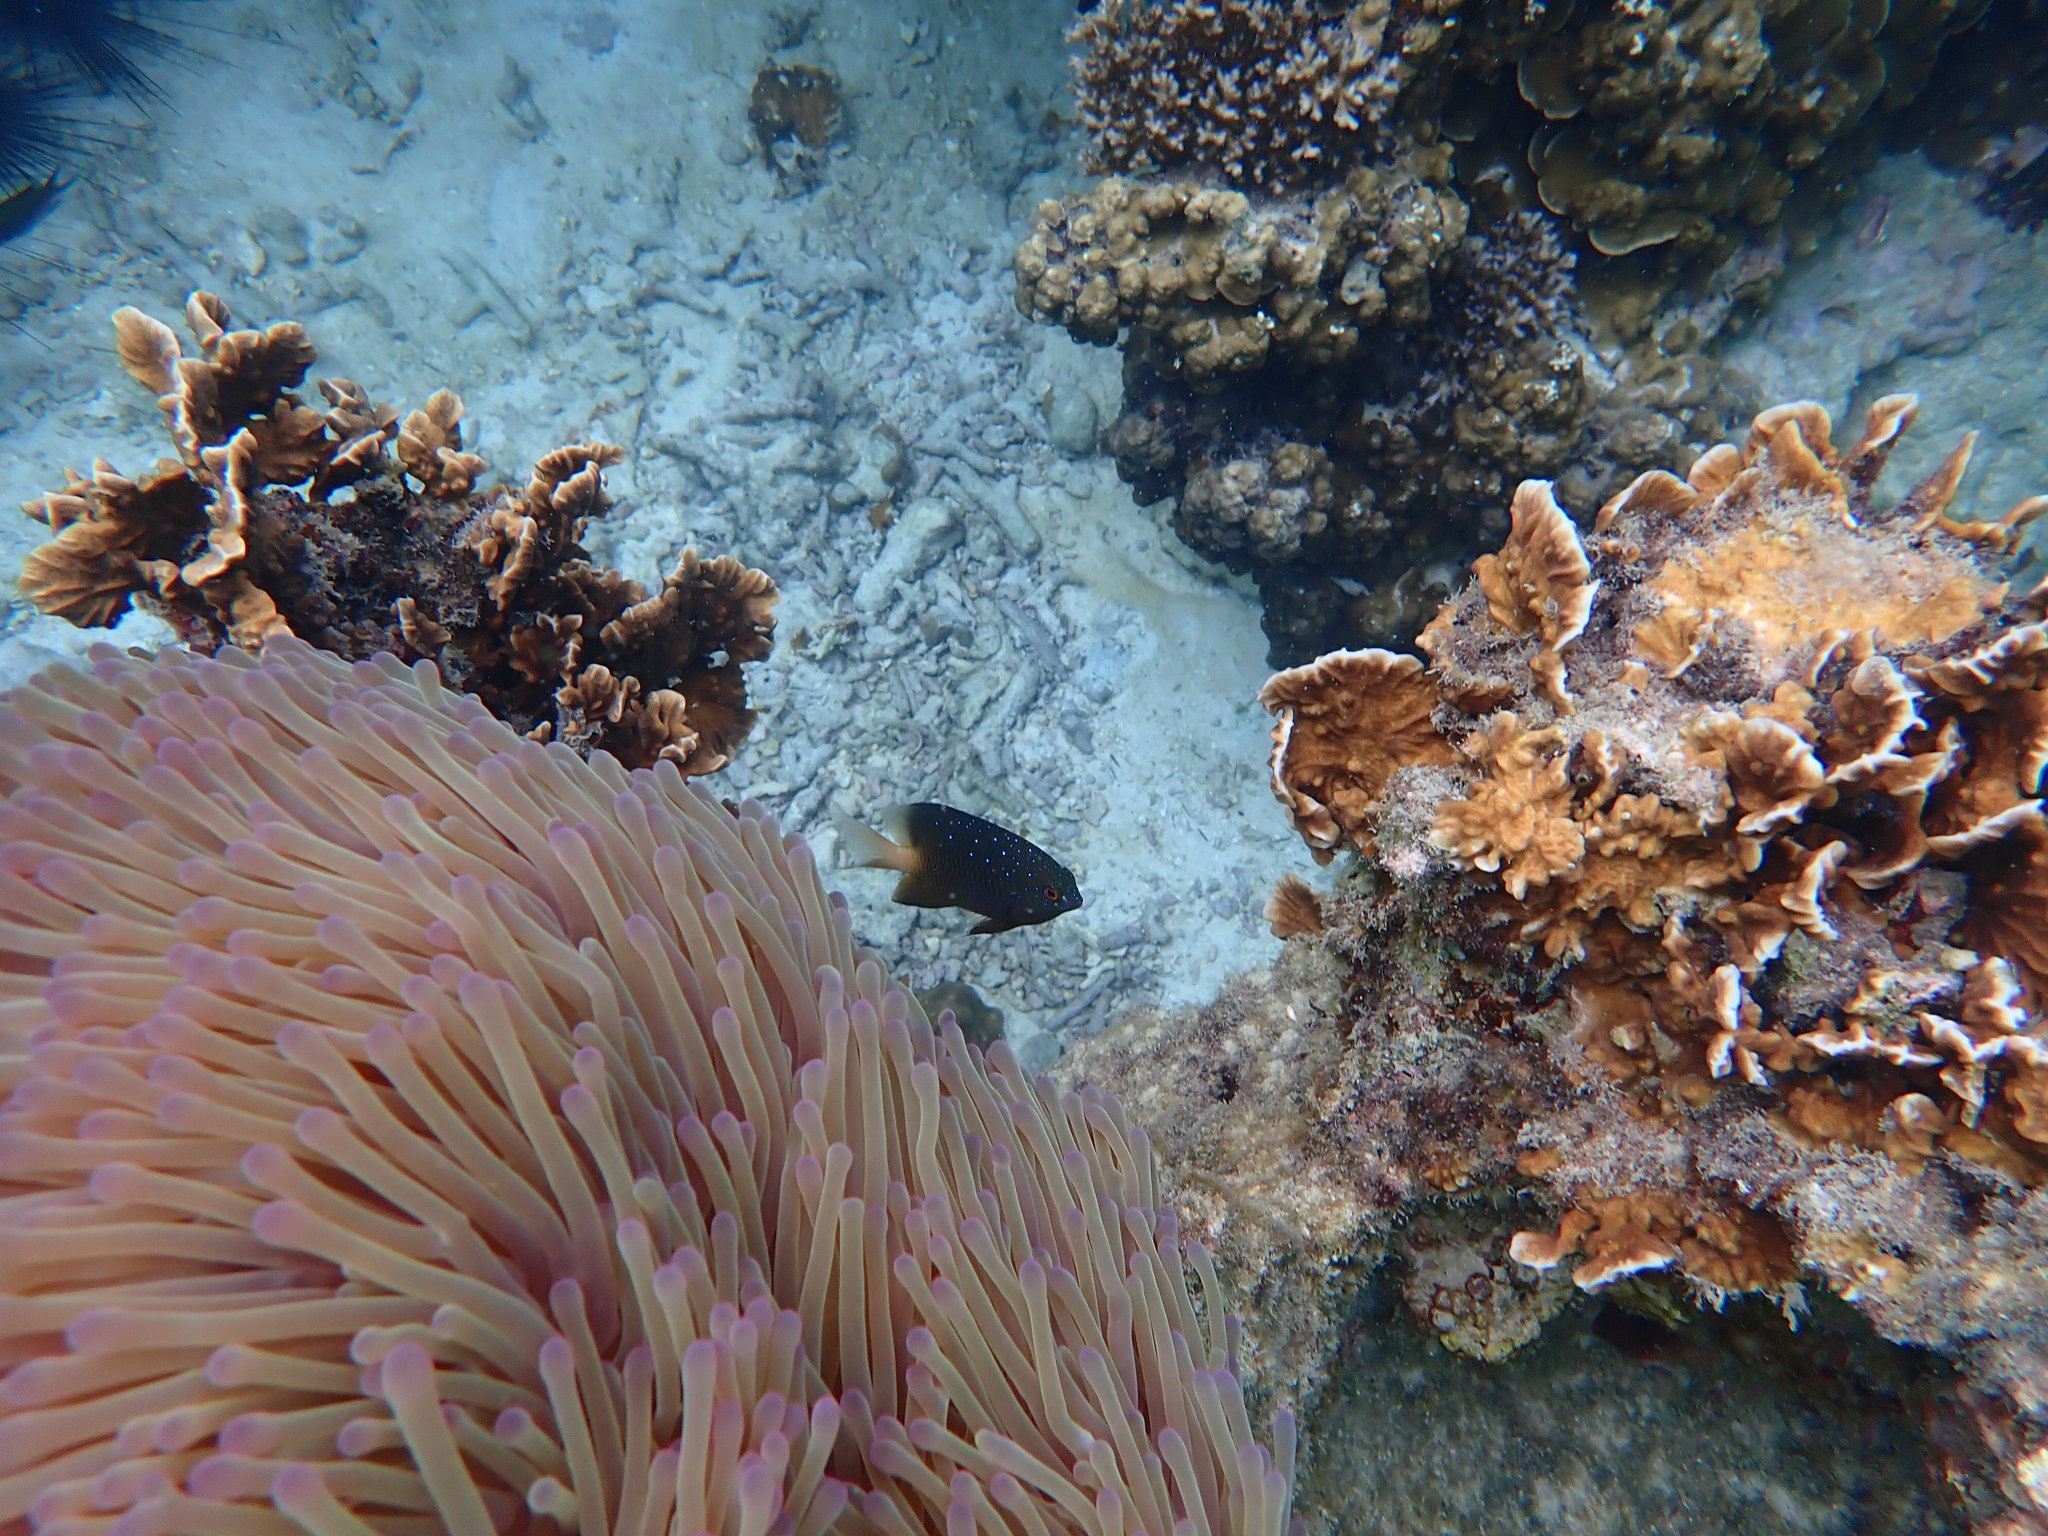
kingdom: Animalia
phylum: Chordata
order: Perciformes
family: Pomacentridae
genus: Plectroglyphidodon
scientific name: Plectroglyphidodon lacrymatus
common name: Jewel damsel
